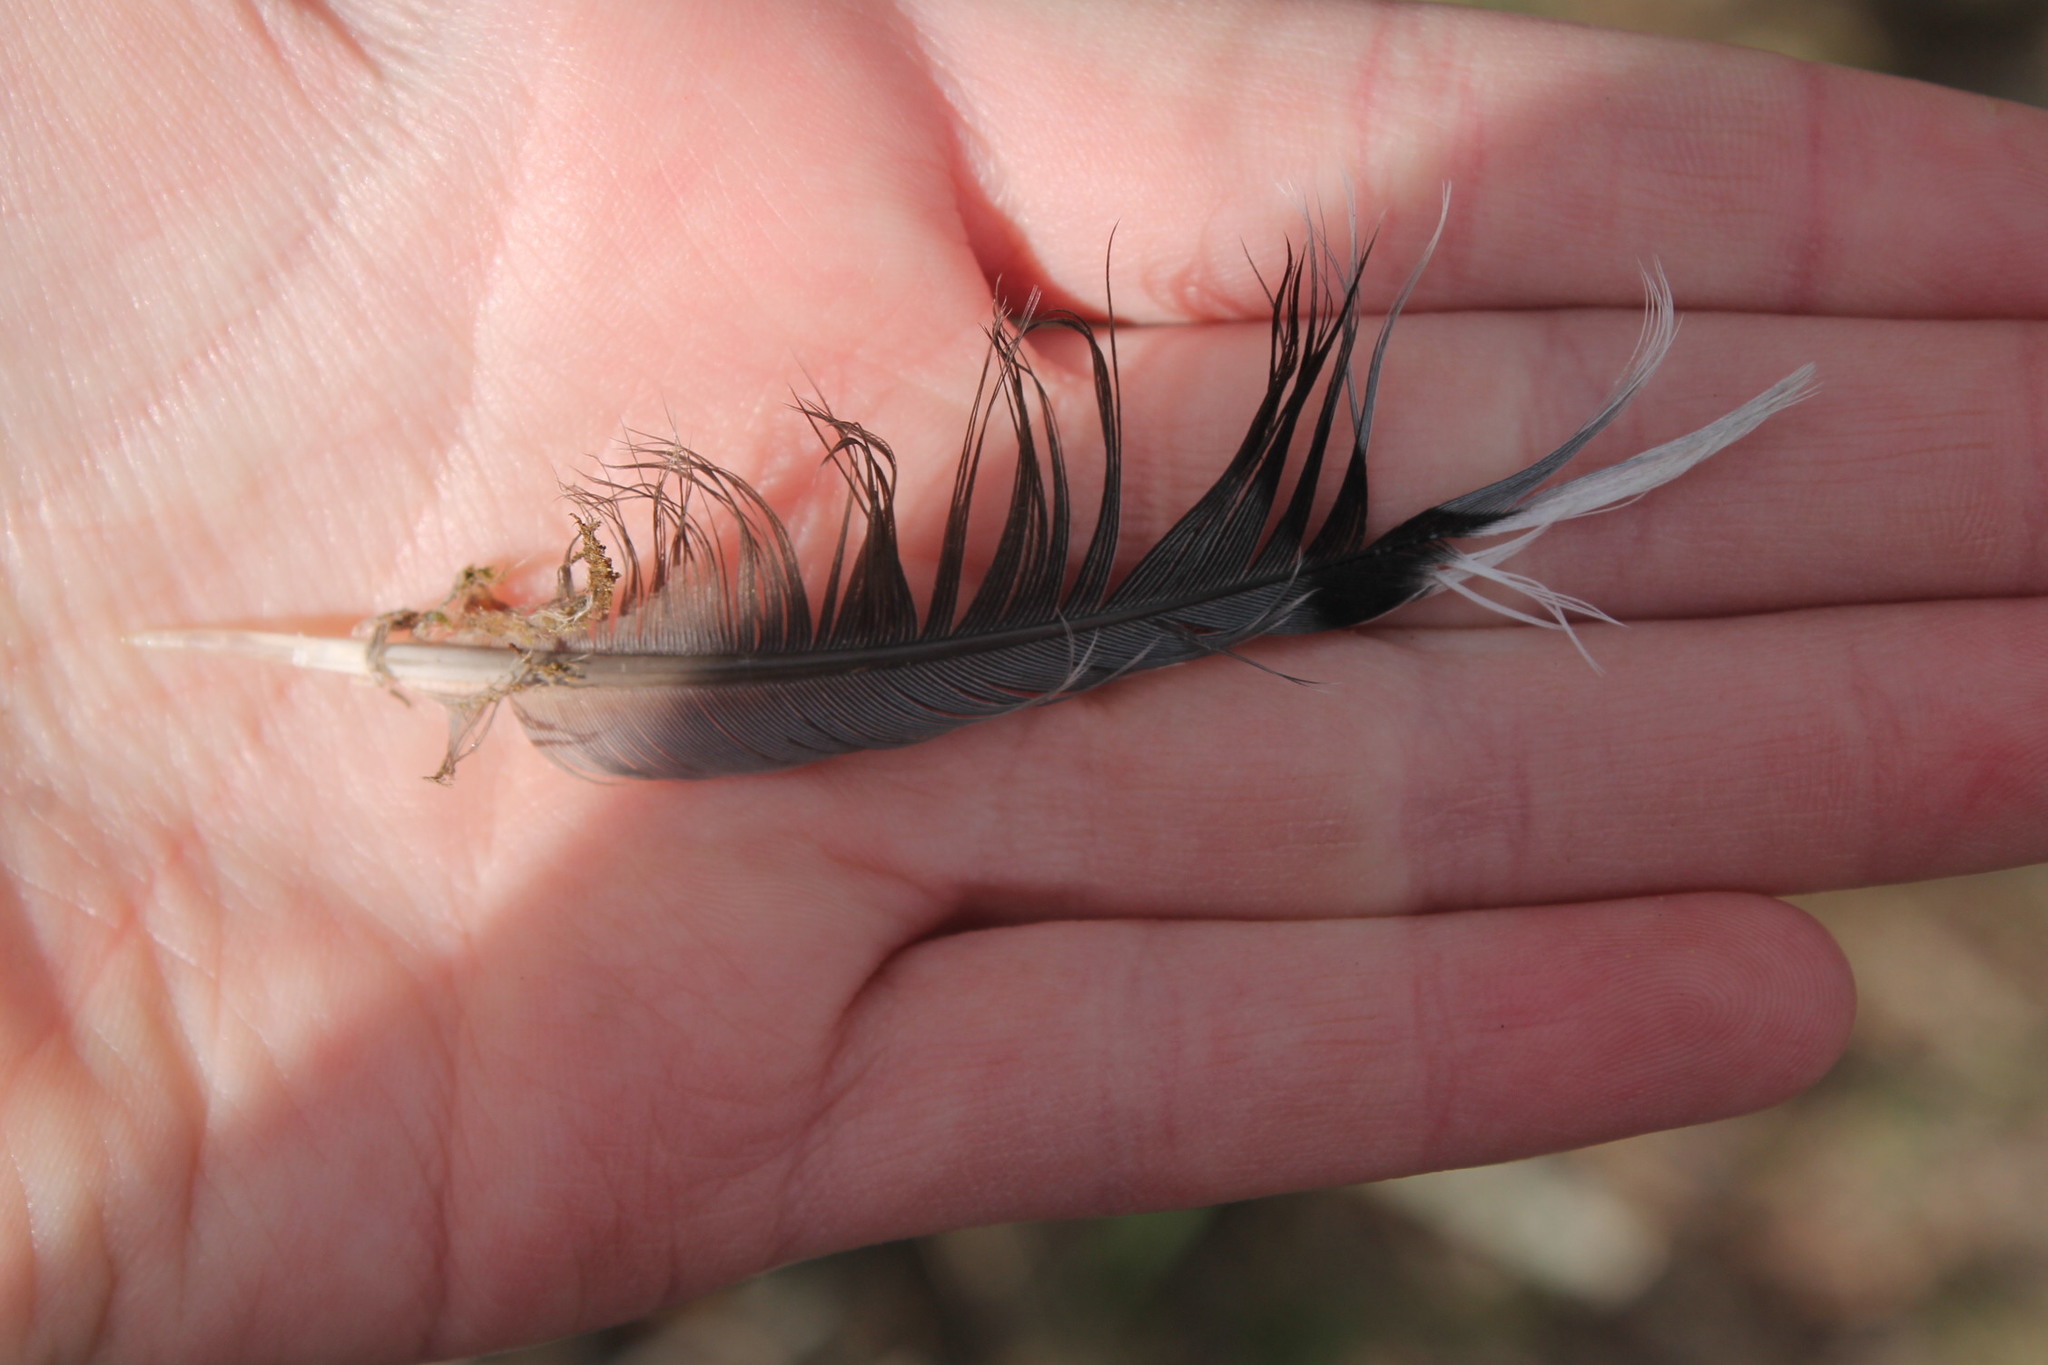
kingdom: Animalia
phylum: Chordata
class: Aves
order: Columbiformes
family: Columbidae
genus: Zenaida
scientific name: Zenaida macroura
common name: Mourning dove
